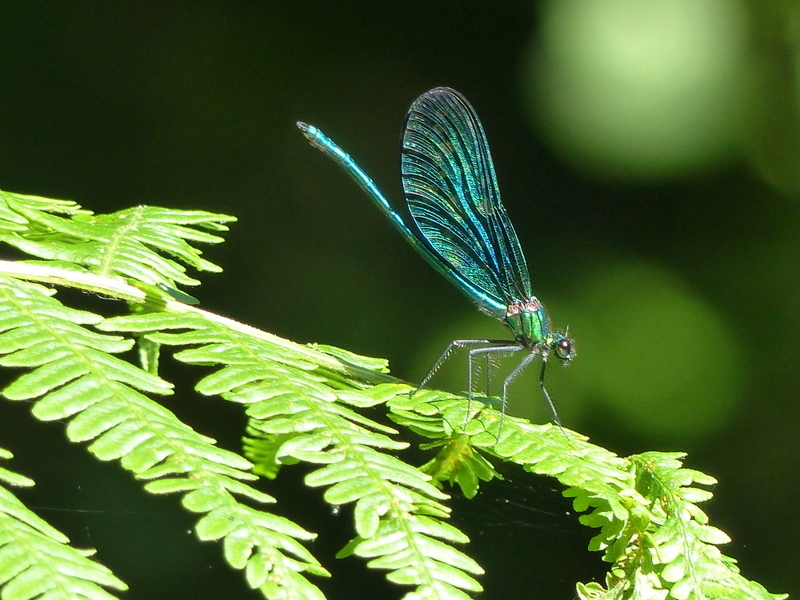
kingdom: Animalia
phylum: Arthropoda
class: Insecta
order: Odonata
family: Calopterygidae
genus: Calopteryx
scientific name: Calopteryx virgo
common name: Beautiful demoiselle
